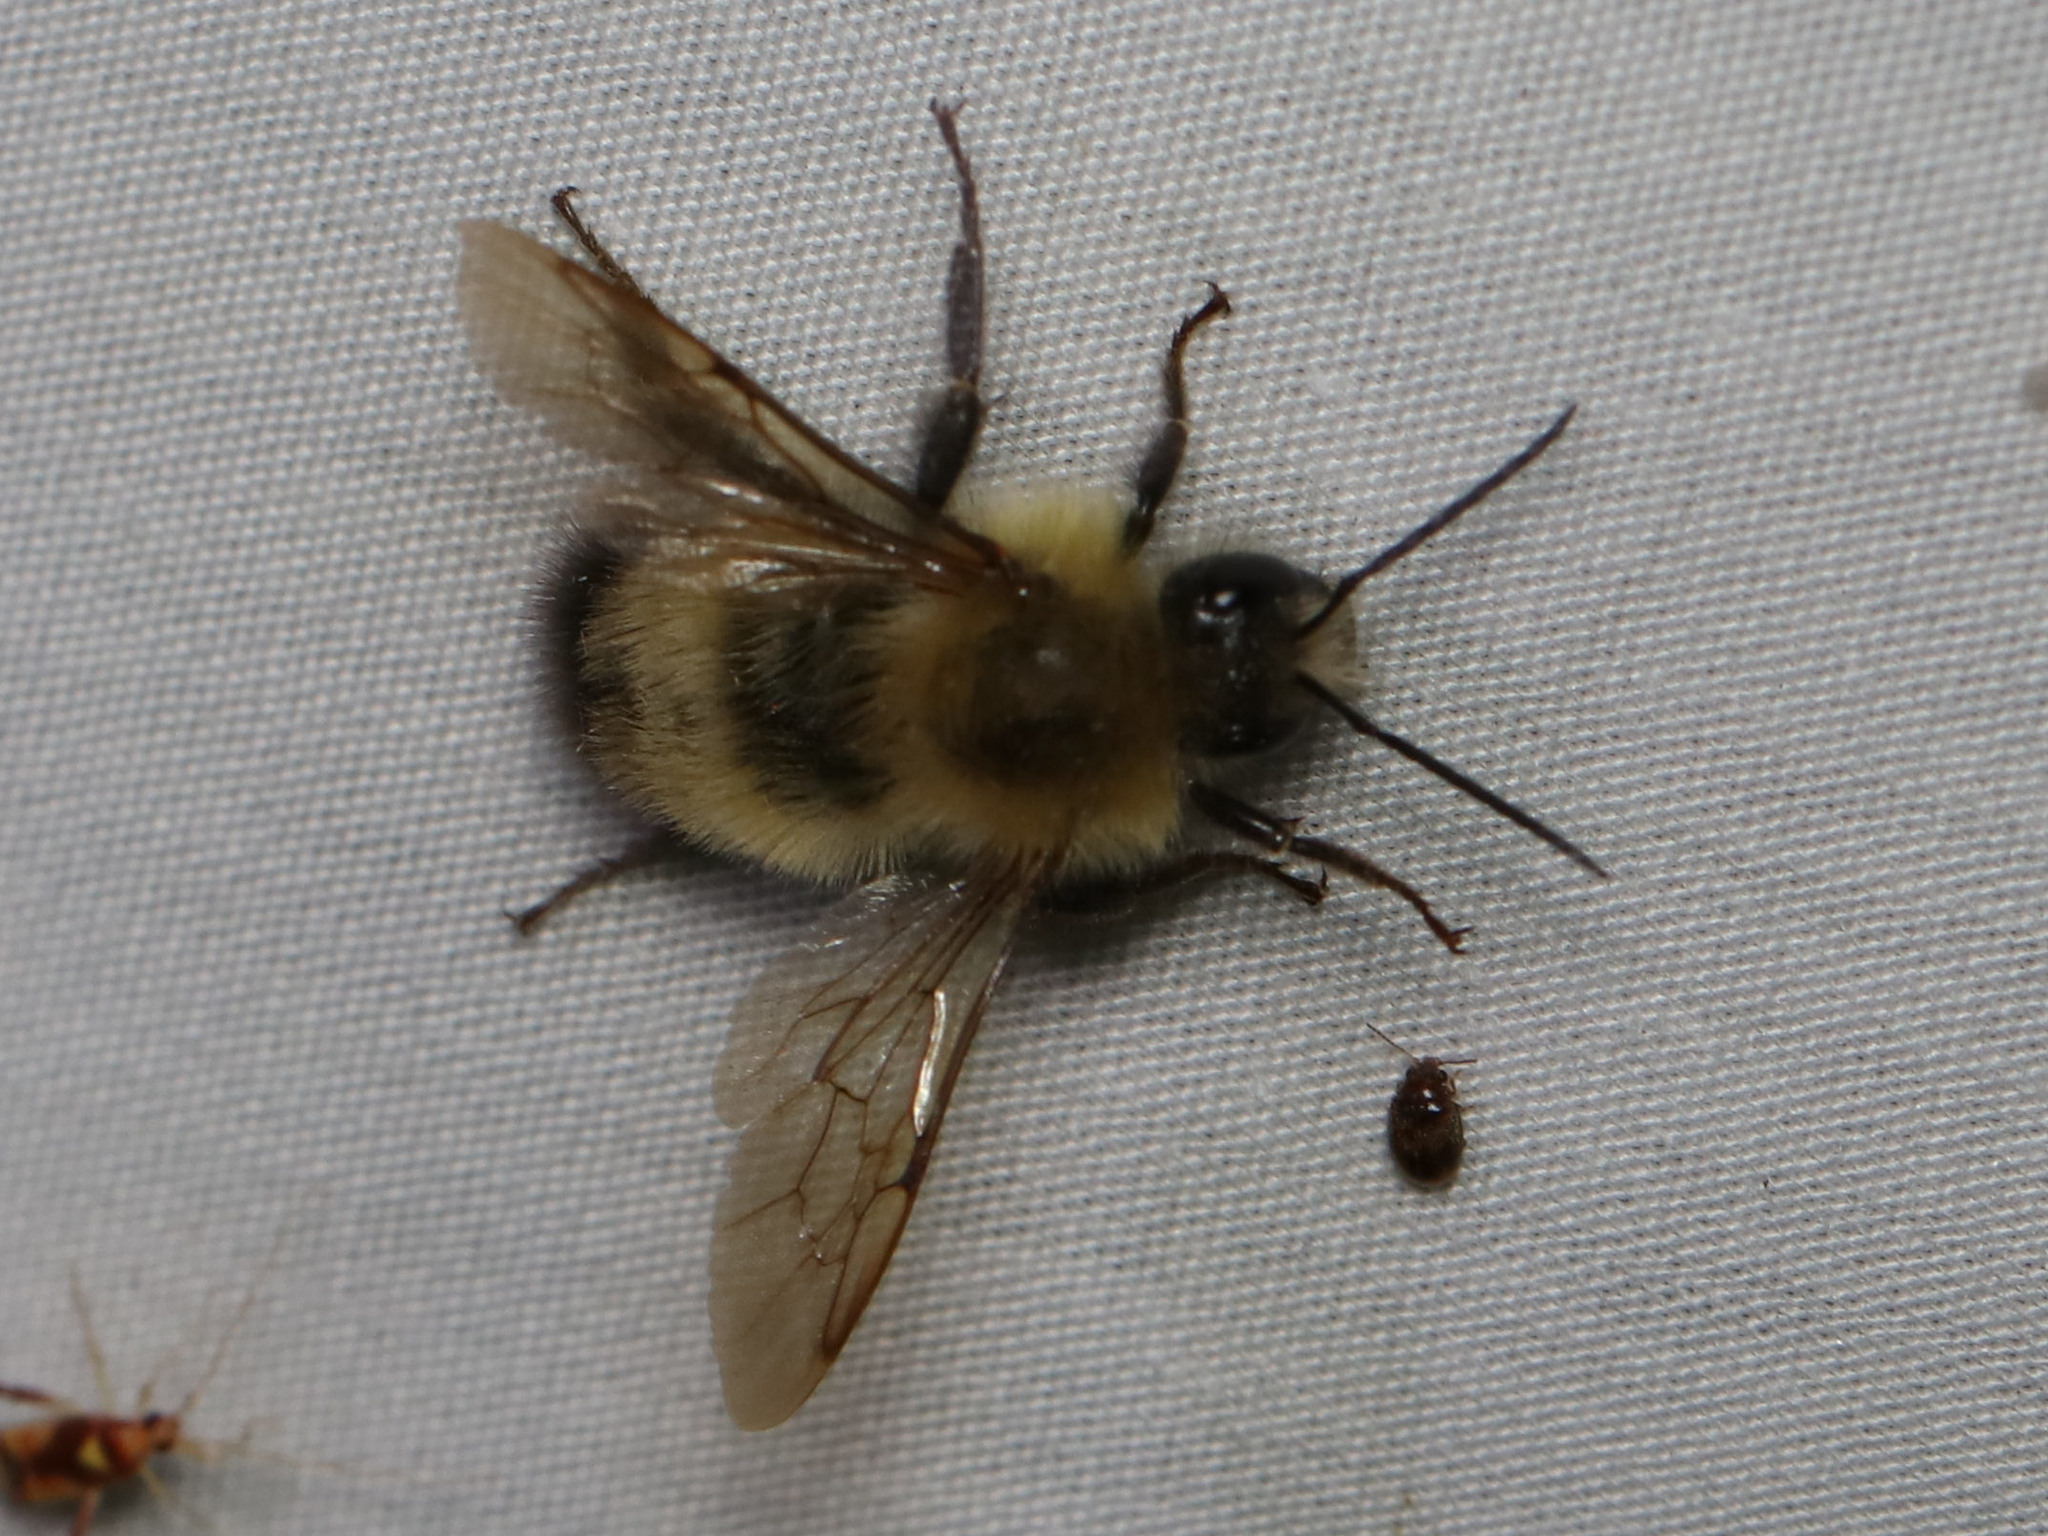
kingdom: Animalia
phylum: Arthropoda
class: Insecta
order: Hymenoptera
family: Apidae
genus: Bombus
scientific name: Bombus perplexus
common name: Confusing bumble bee
